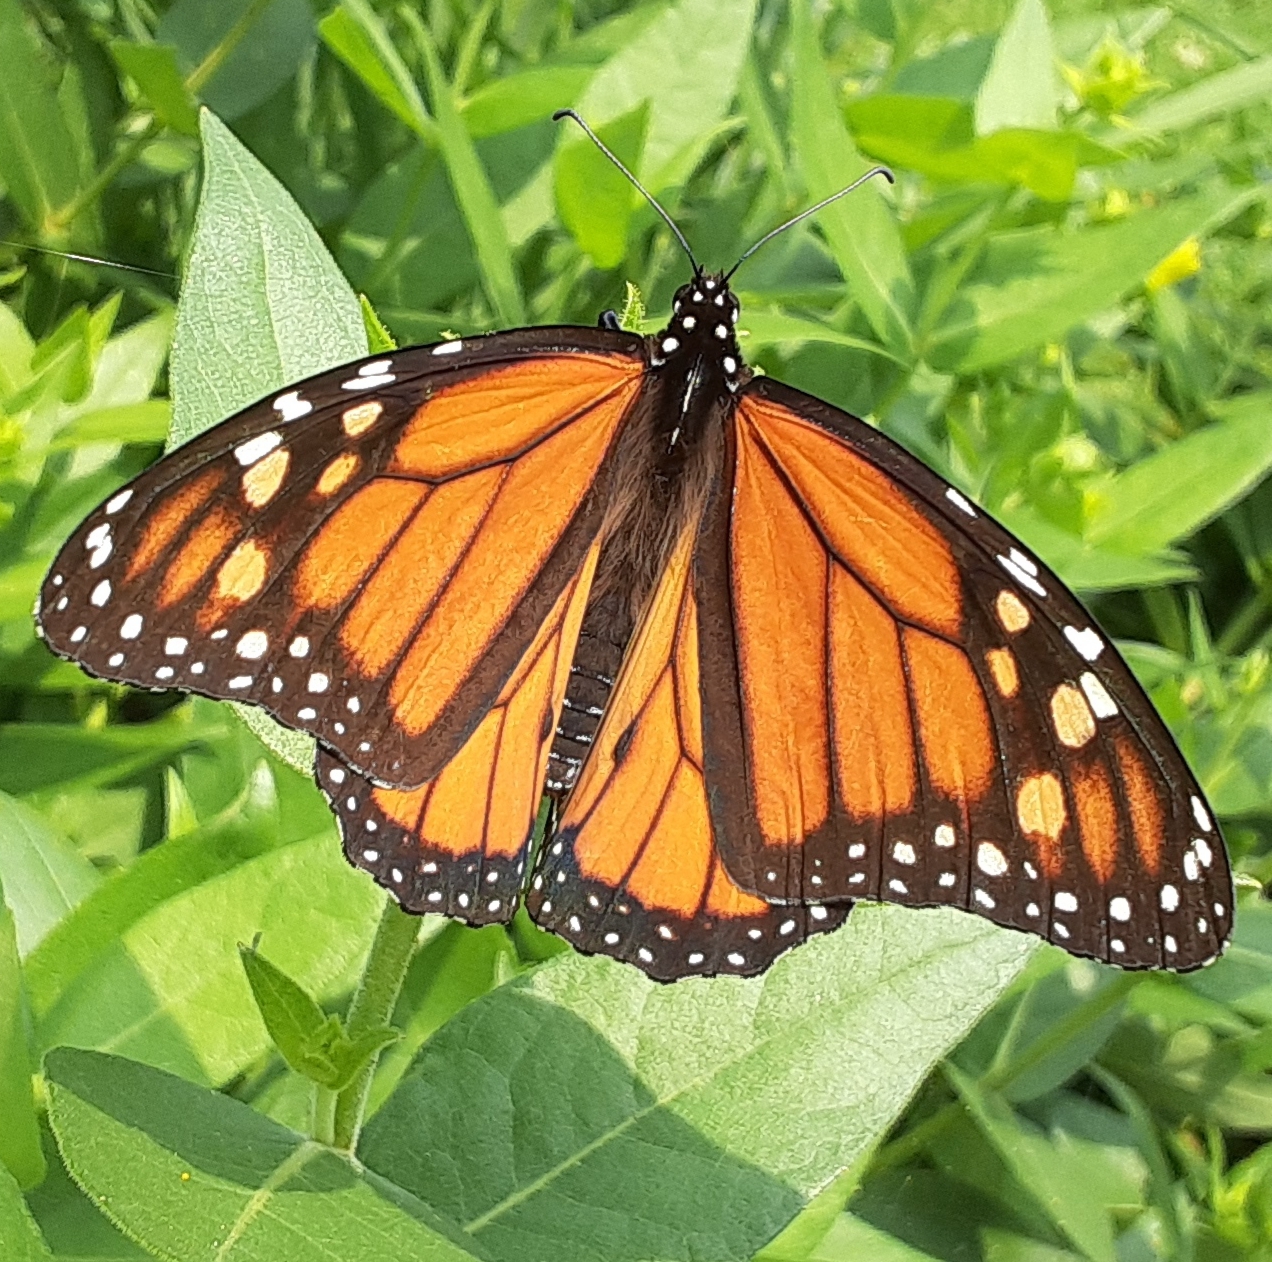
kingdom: Animalia
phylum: Arthropoda
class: Insecta
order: Lepidoptera
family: Nymphalidae
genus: Danaus
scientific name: Danaus plexippus
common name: Monarch
